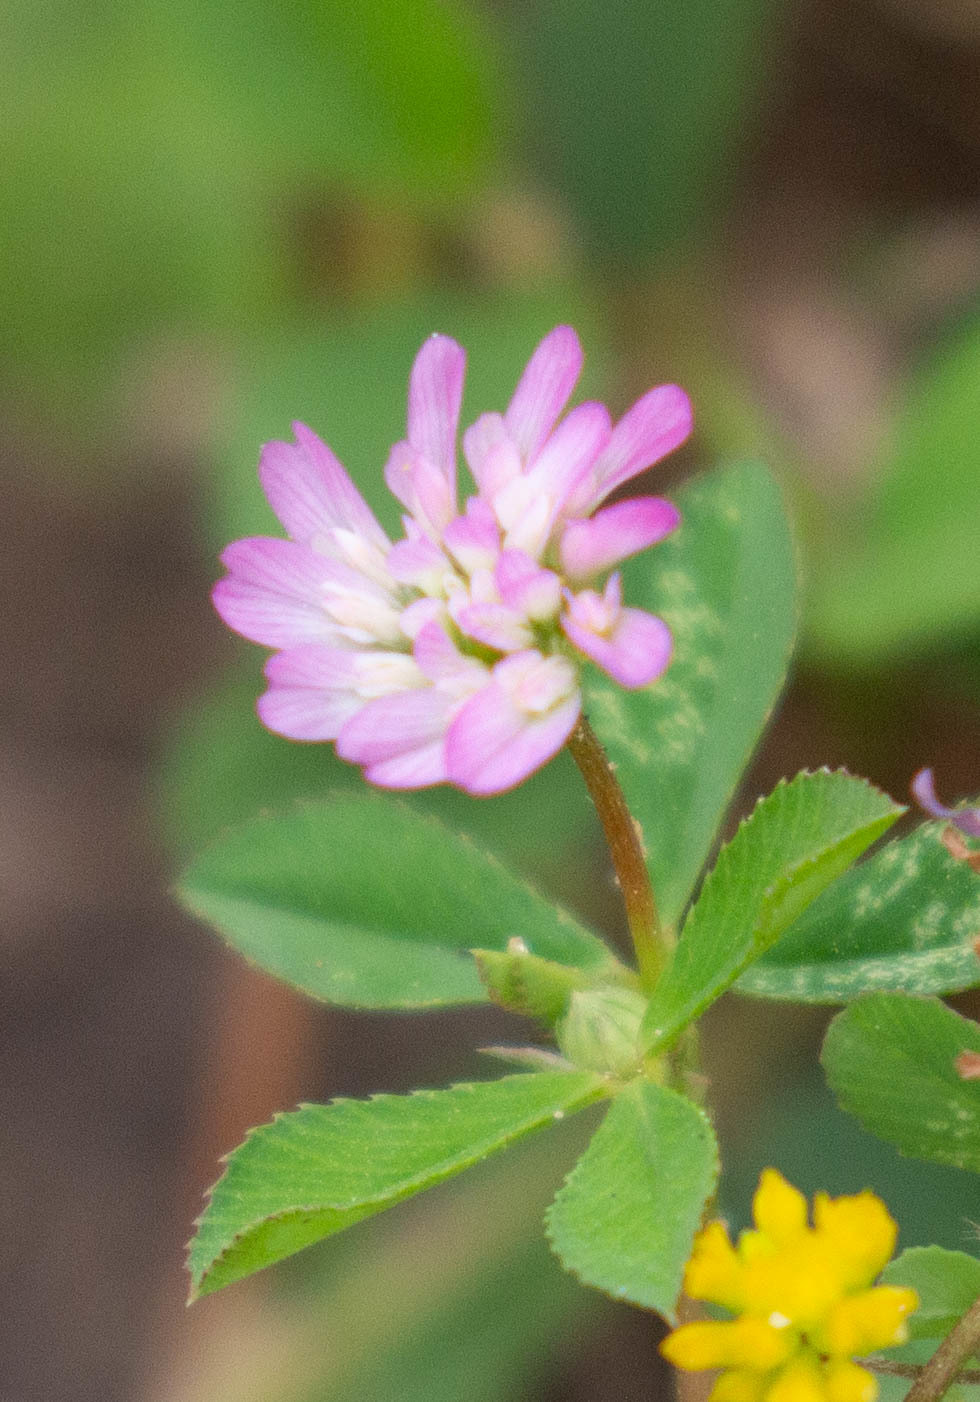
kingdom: Plantae
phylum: Tracheophyta
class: Magnoliopsida
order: Fabales
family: Fabaceae
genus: Trifolium
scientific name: Trifolium resupinatum
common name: Reversed clover
